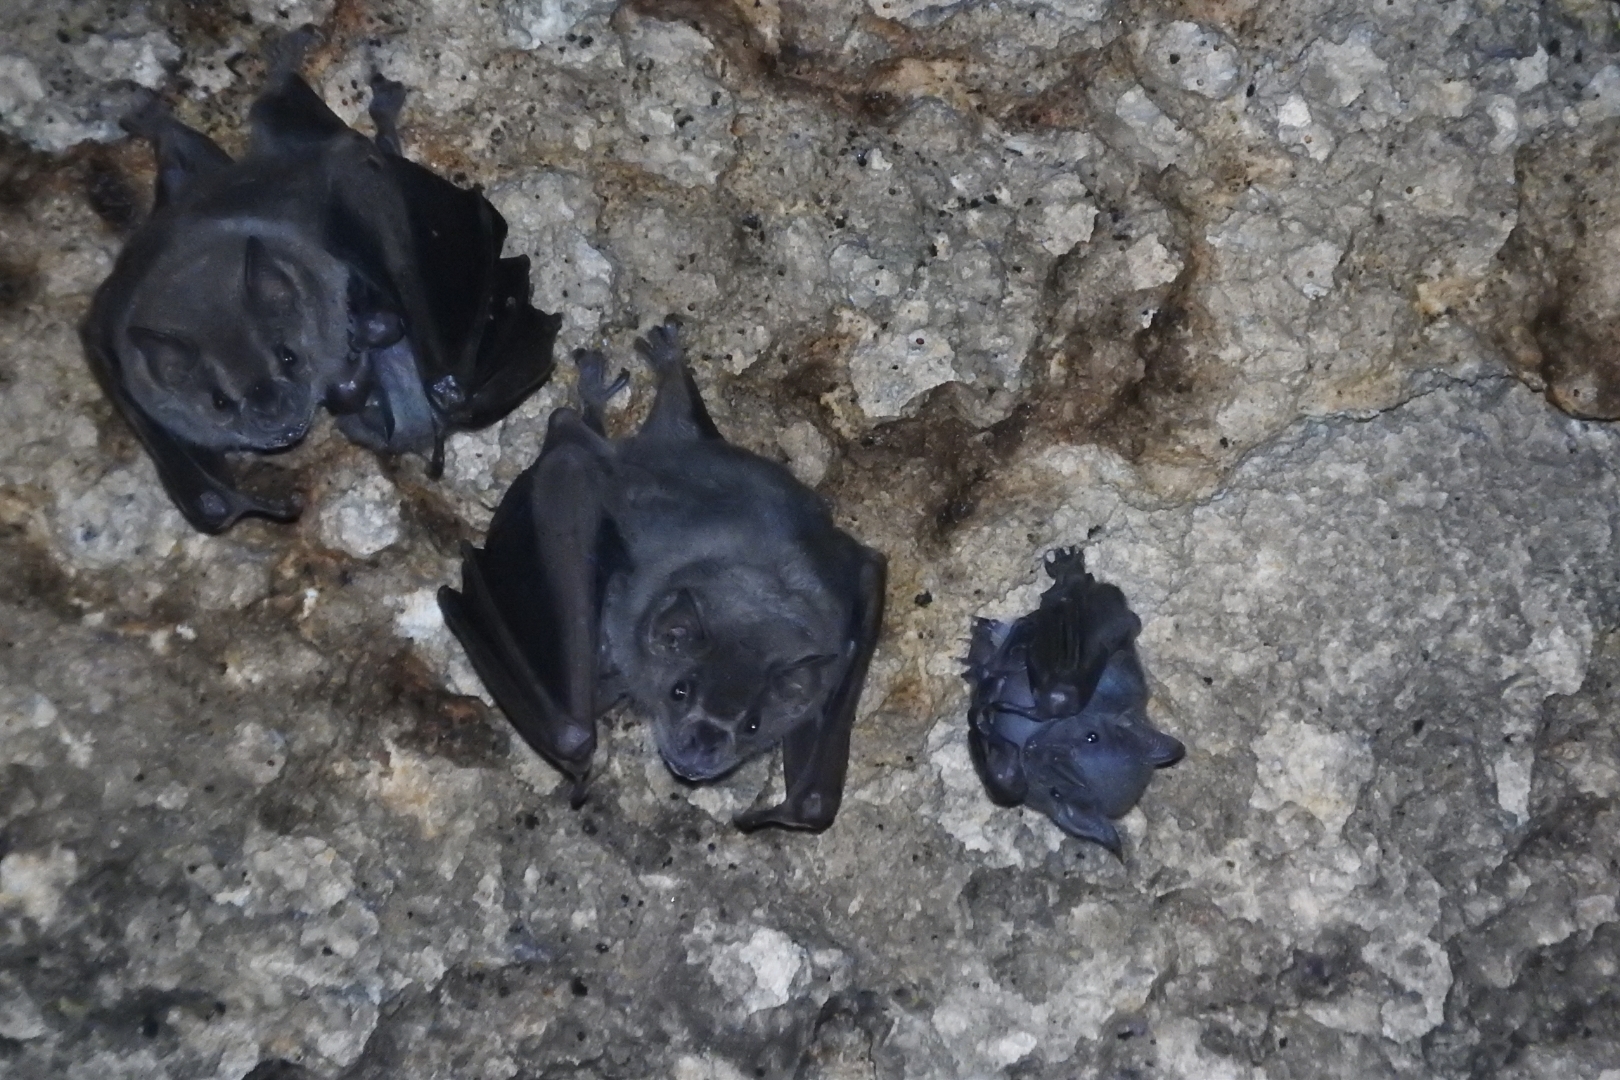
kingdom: Animalia
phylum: Chordata
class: Mammalia
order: Chiroptera
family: Phyllostomidae
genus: Artibeus
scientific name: Artibeus jamaicensis
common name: Jamaican fruit-eating bat
